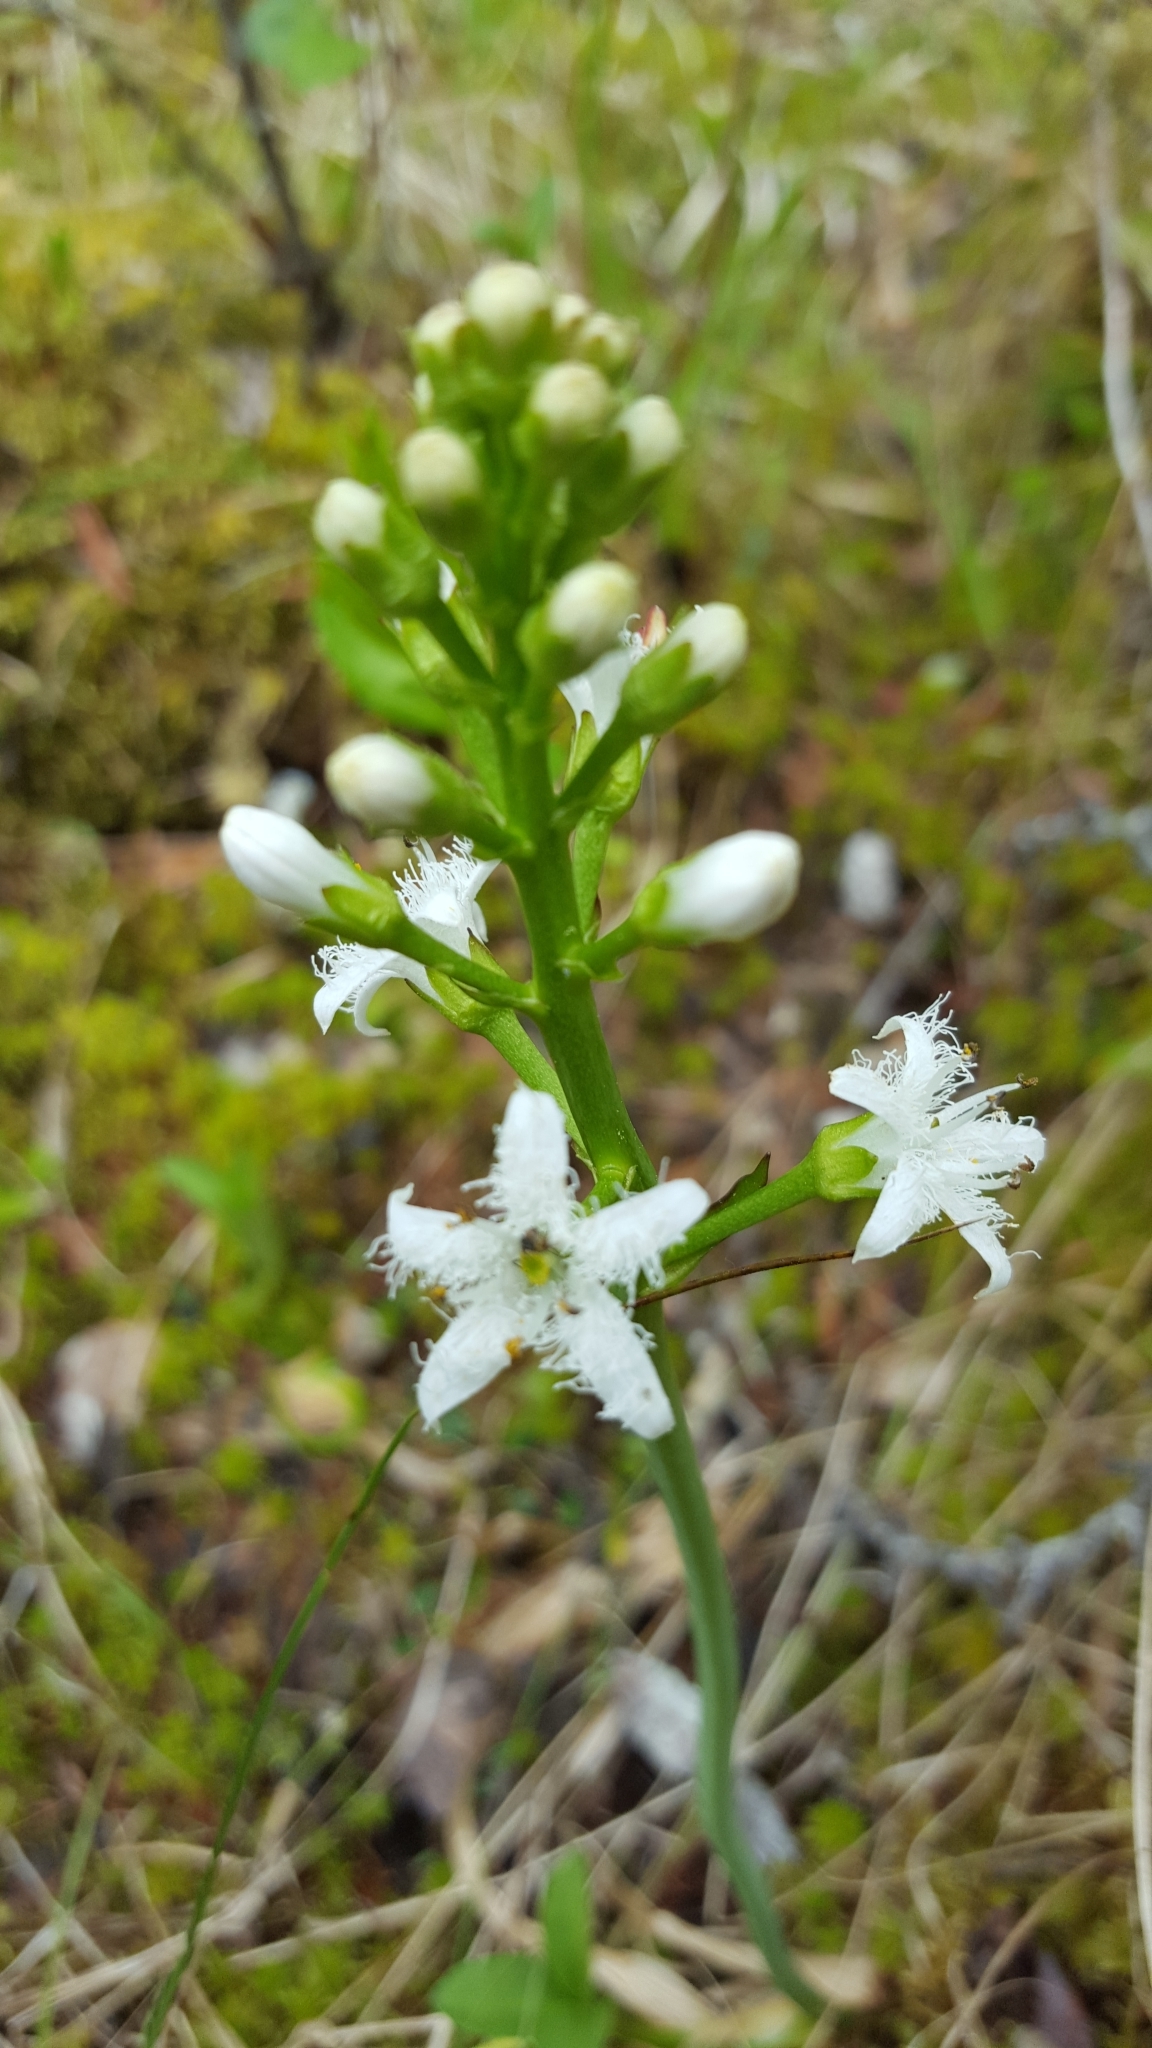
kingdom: Plantae
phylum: Tracheophyta
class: Magnoliopsida
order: Asterales
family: Menyanthaceae
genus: Menyanthes
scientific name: Menyanthes trifoliata
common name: Bogbean
